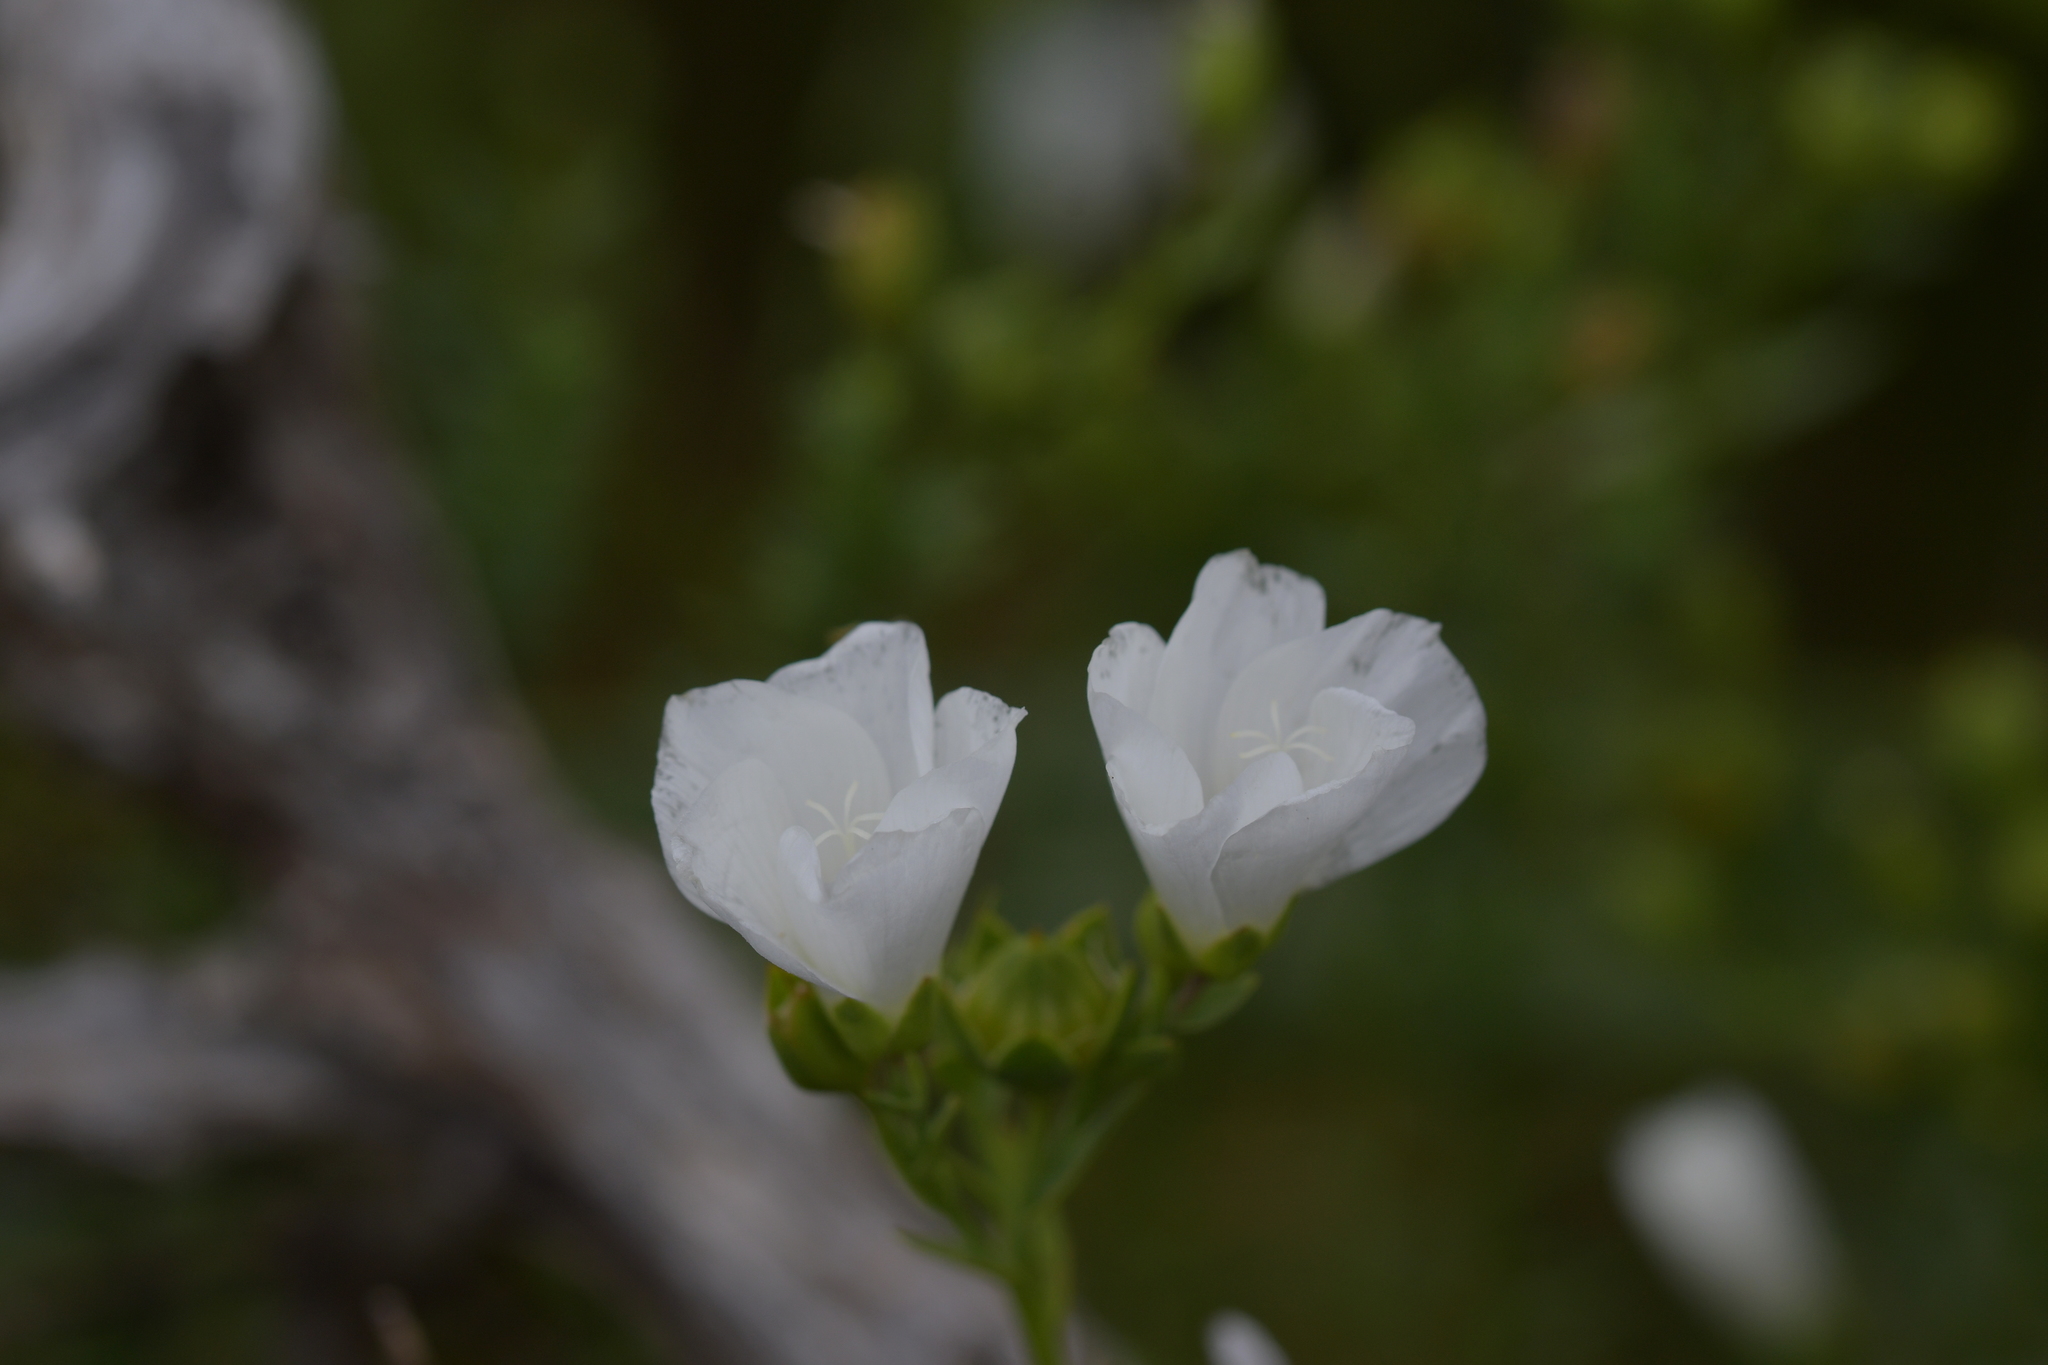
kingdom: Plantae
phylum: Tracheophyta
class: Magnoliopsida
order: Malpighiales
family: Linaceae
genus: Linum
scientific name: Linum monogynum
